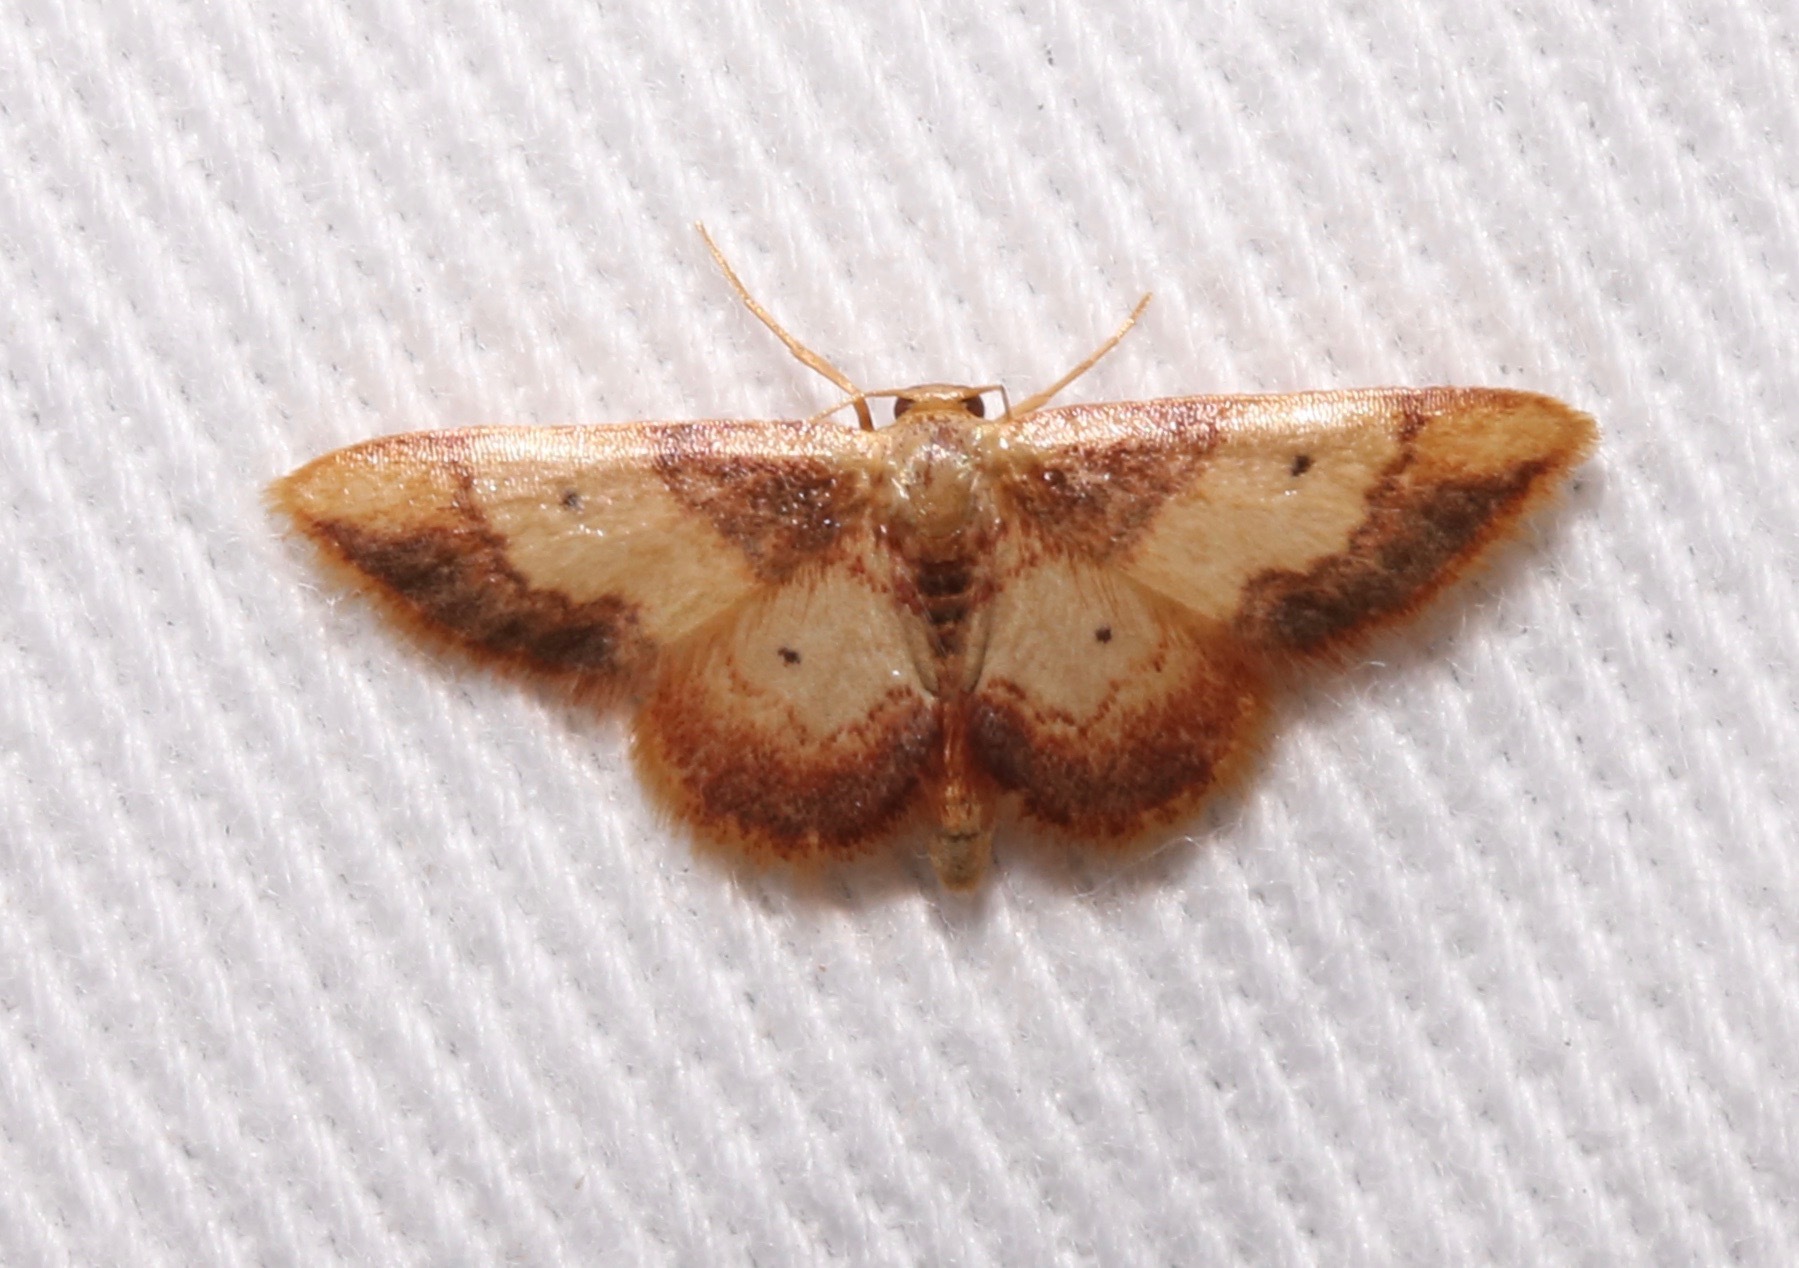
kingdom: Animalia
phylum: Arthropoda
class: Insecta
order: Lepidoptera
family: Geometridae
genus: Idaea
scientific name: Idaea demissaria
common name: Red-bordered wave
